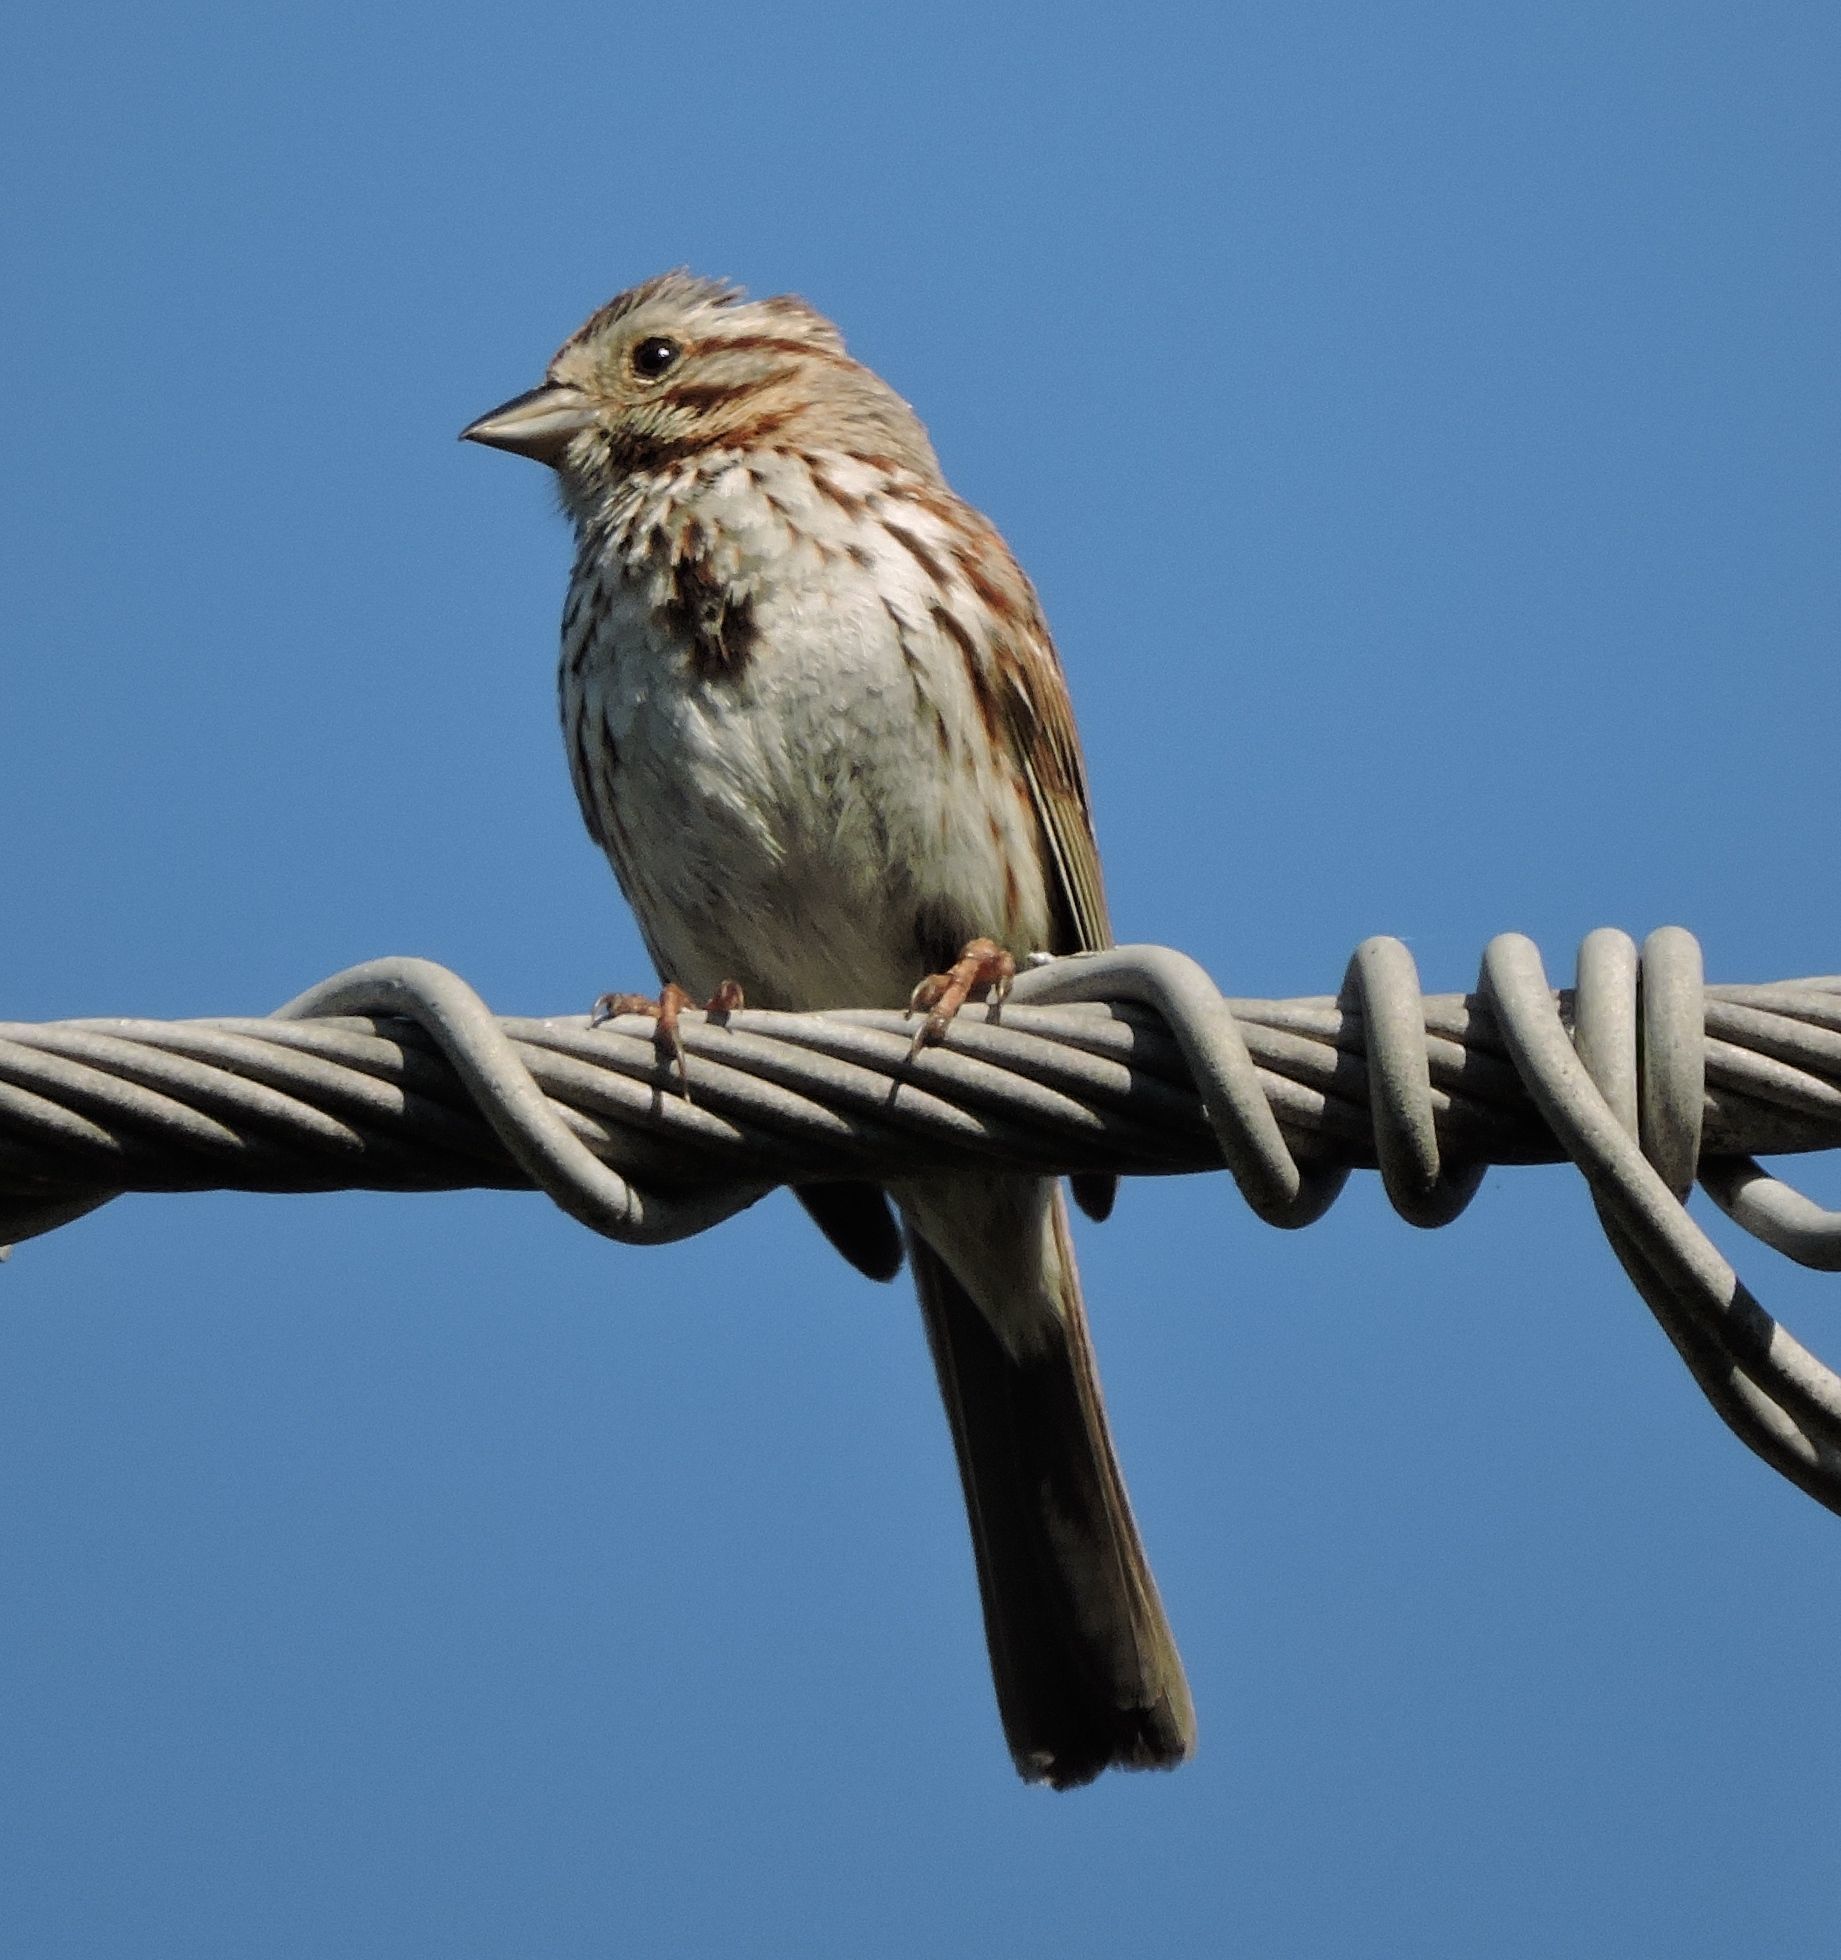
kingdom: Animalia
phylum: Chordata
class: Aves
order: Passeriformes
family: Passerellidae
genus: Melospiza
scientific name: Melospiza melodia
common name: Song sparrow
